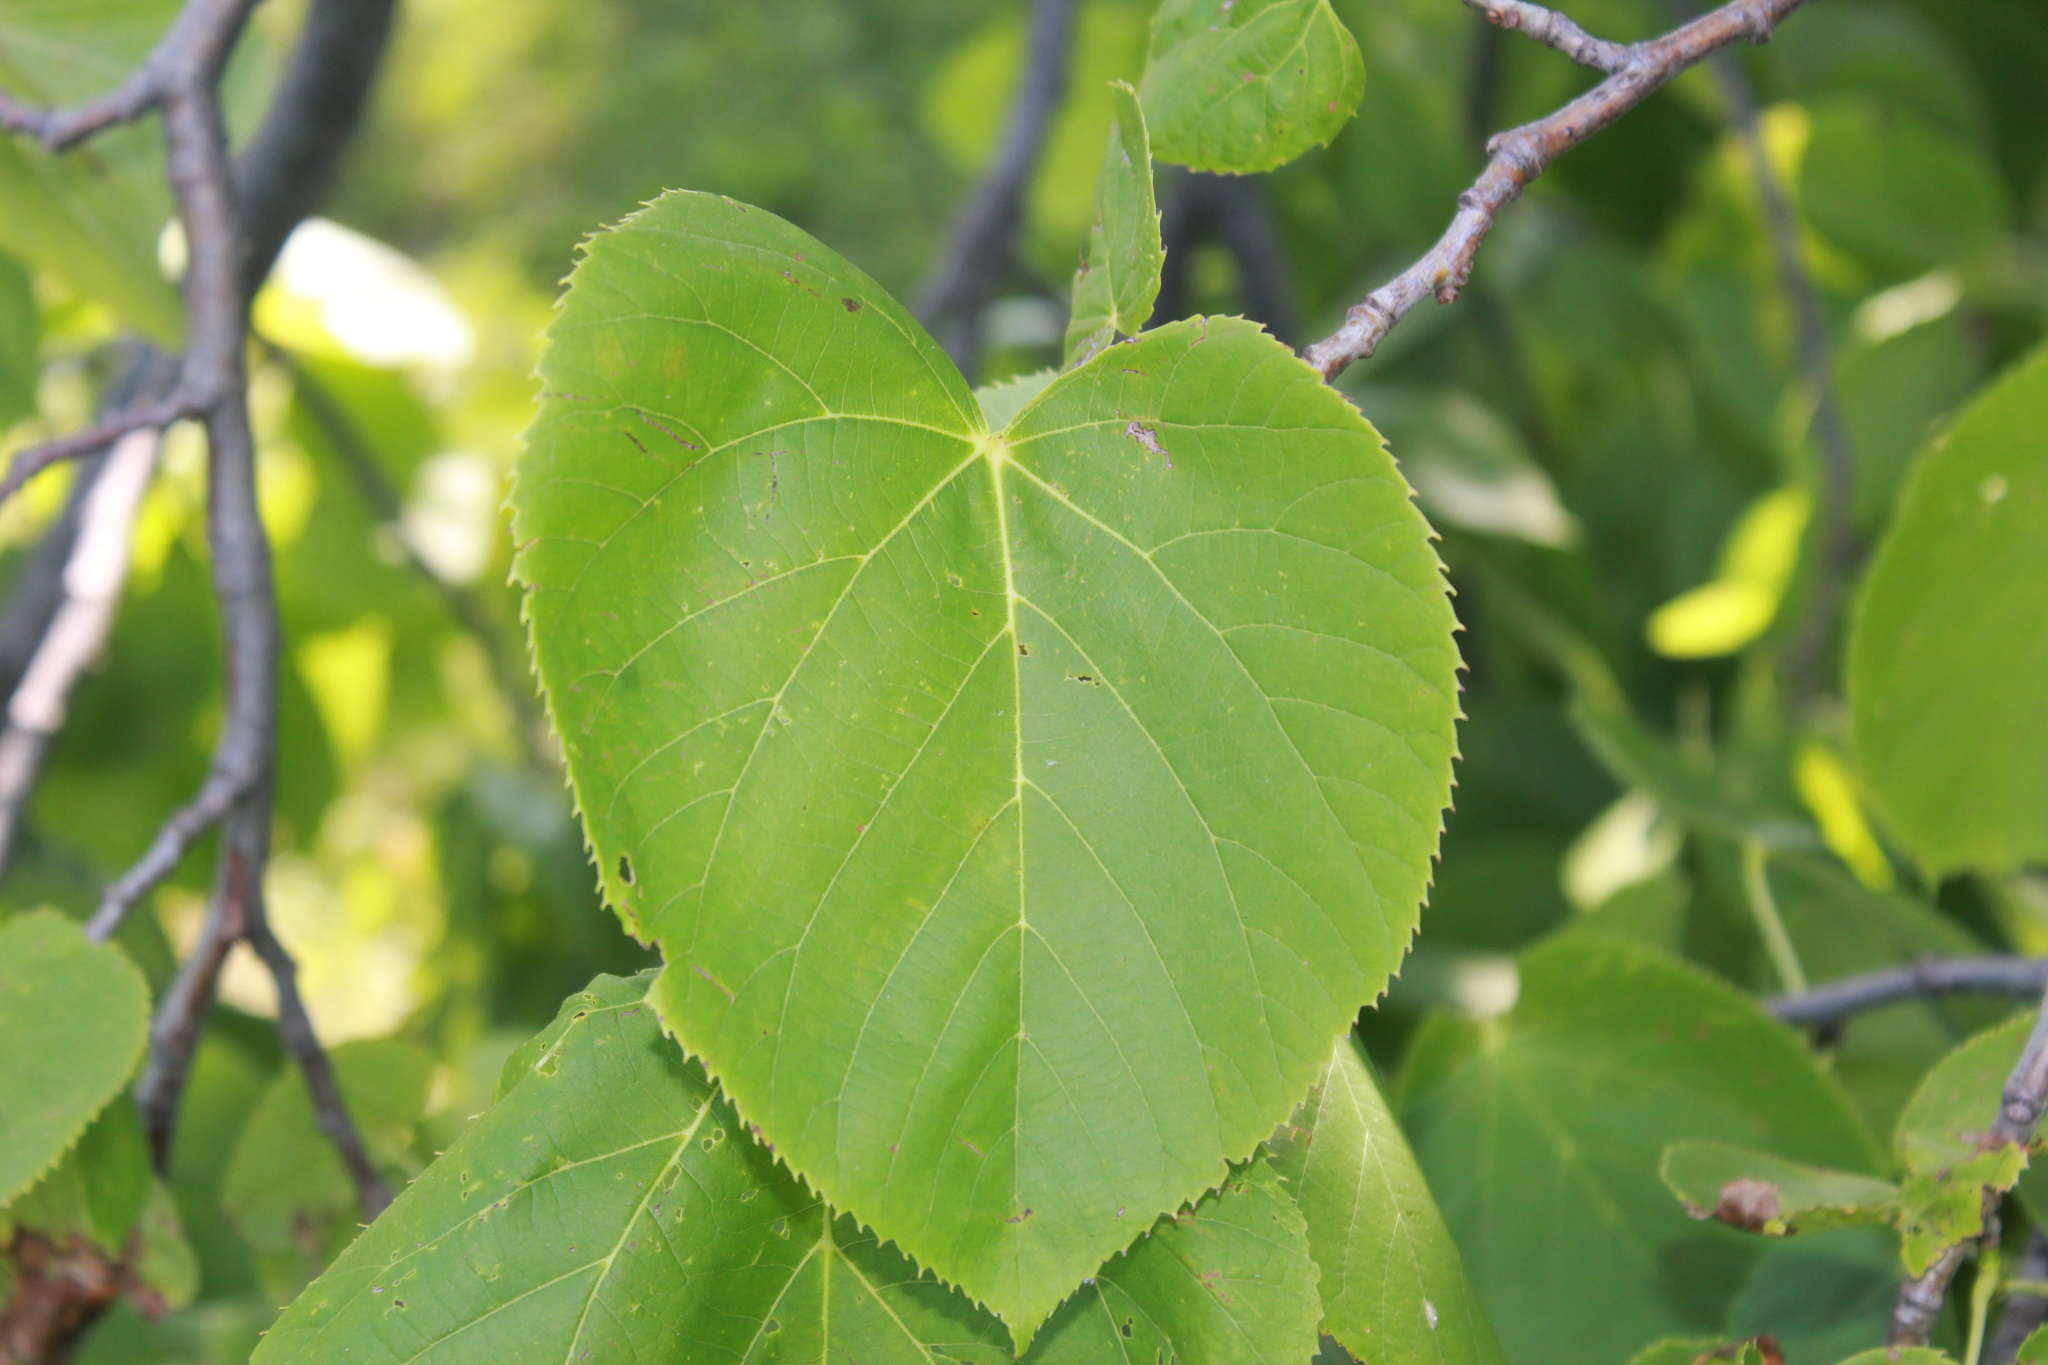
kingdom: Plantae
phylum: Tracheophyta
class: Magnoliopsida
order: Malvales
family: Malvaceae
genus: Tilia
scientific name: Tilia americana
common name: Basswood
